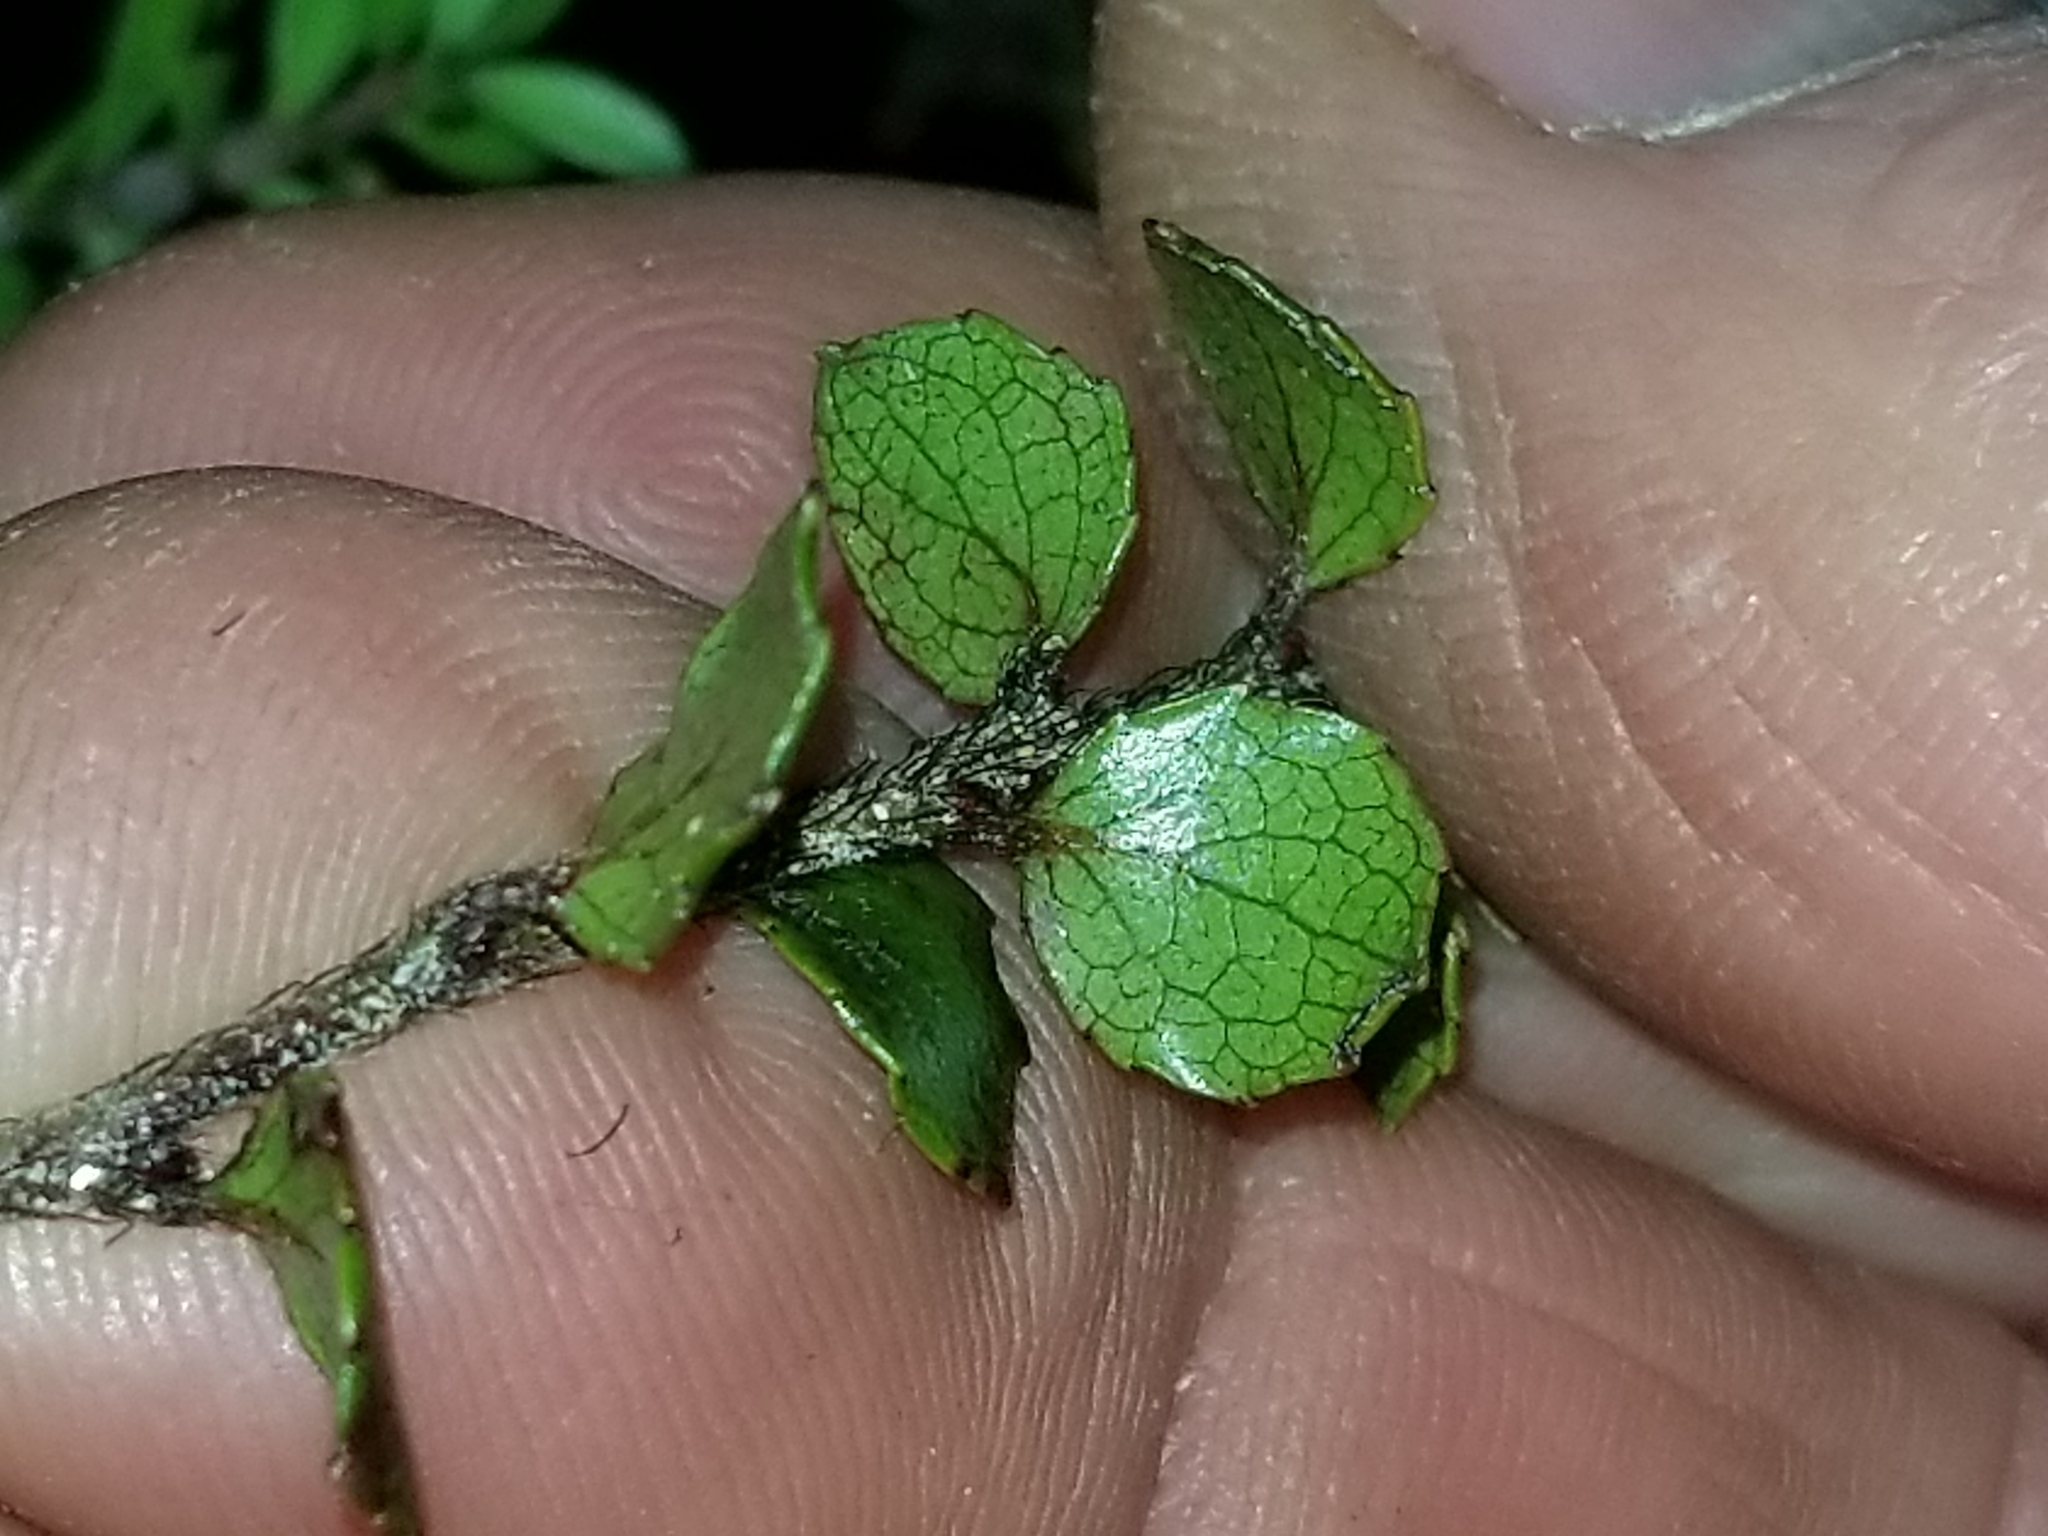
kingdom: Plantae
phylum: Tracheophyta
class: Magnoliopsida
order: Ericales
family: Ericaceae
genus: Gaultheria
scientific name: Gaultheria
